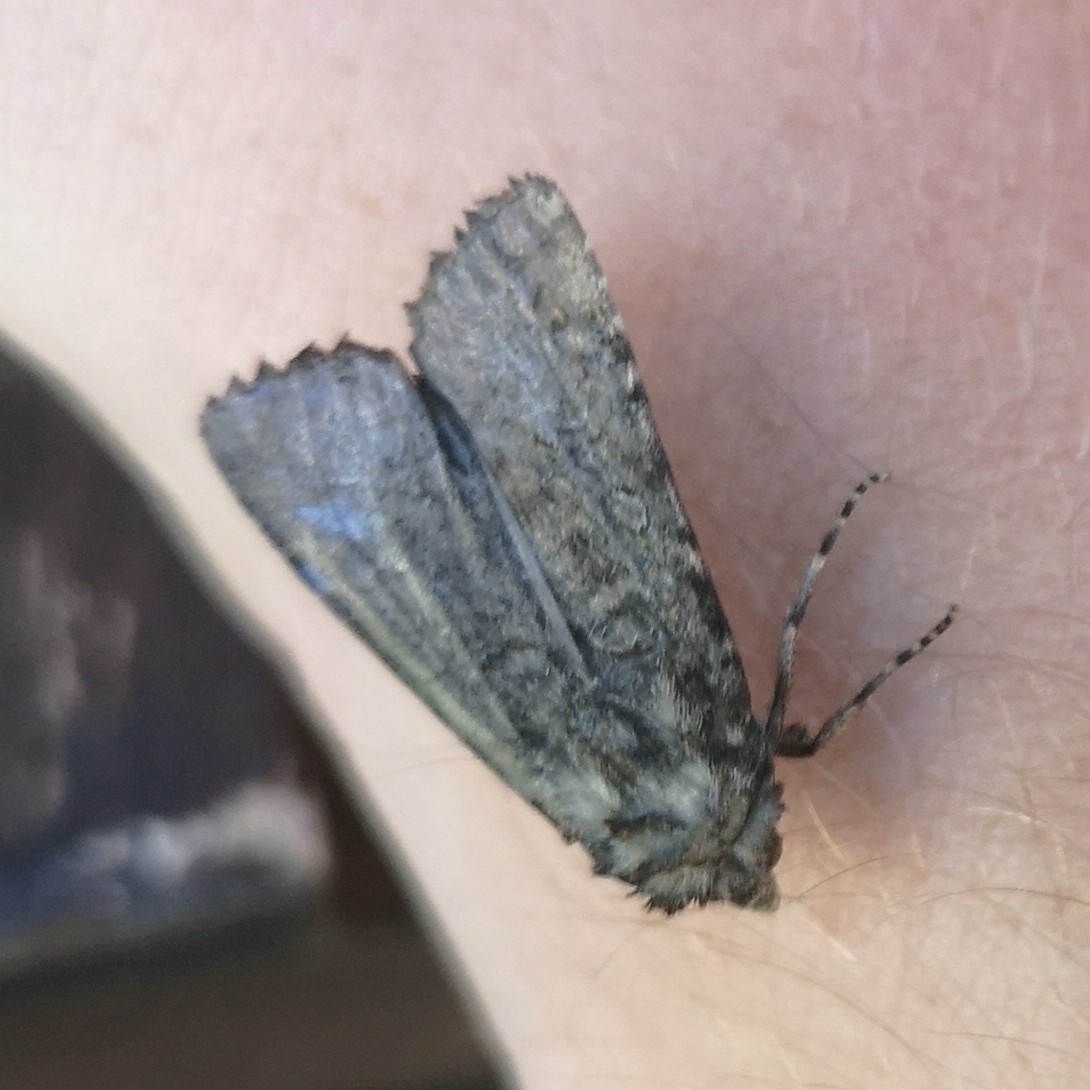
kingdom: Animalia
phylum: Arthropoda
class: Insecta
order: Lepidoptera
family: Noctuidae
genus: Euxoa
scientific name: Euxoa canariensis
